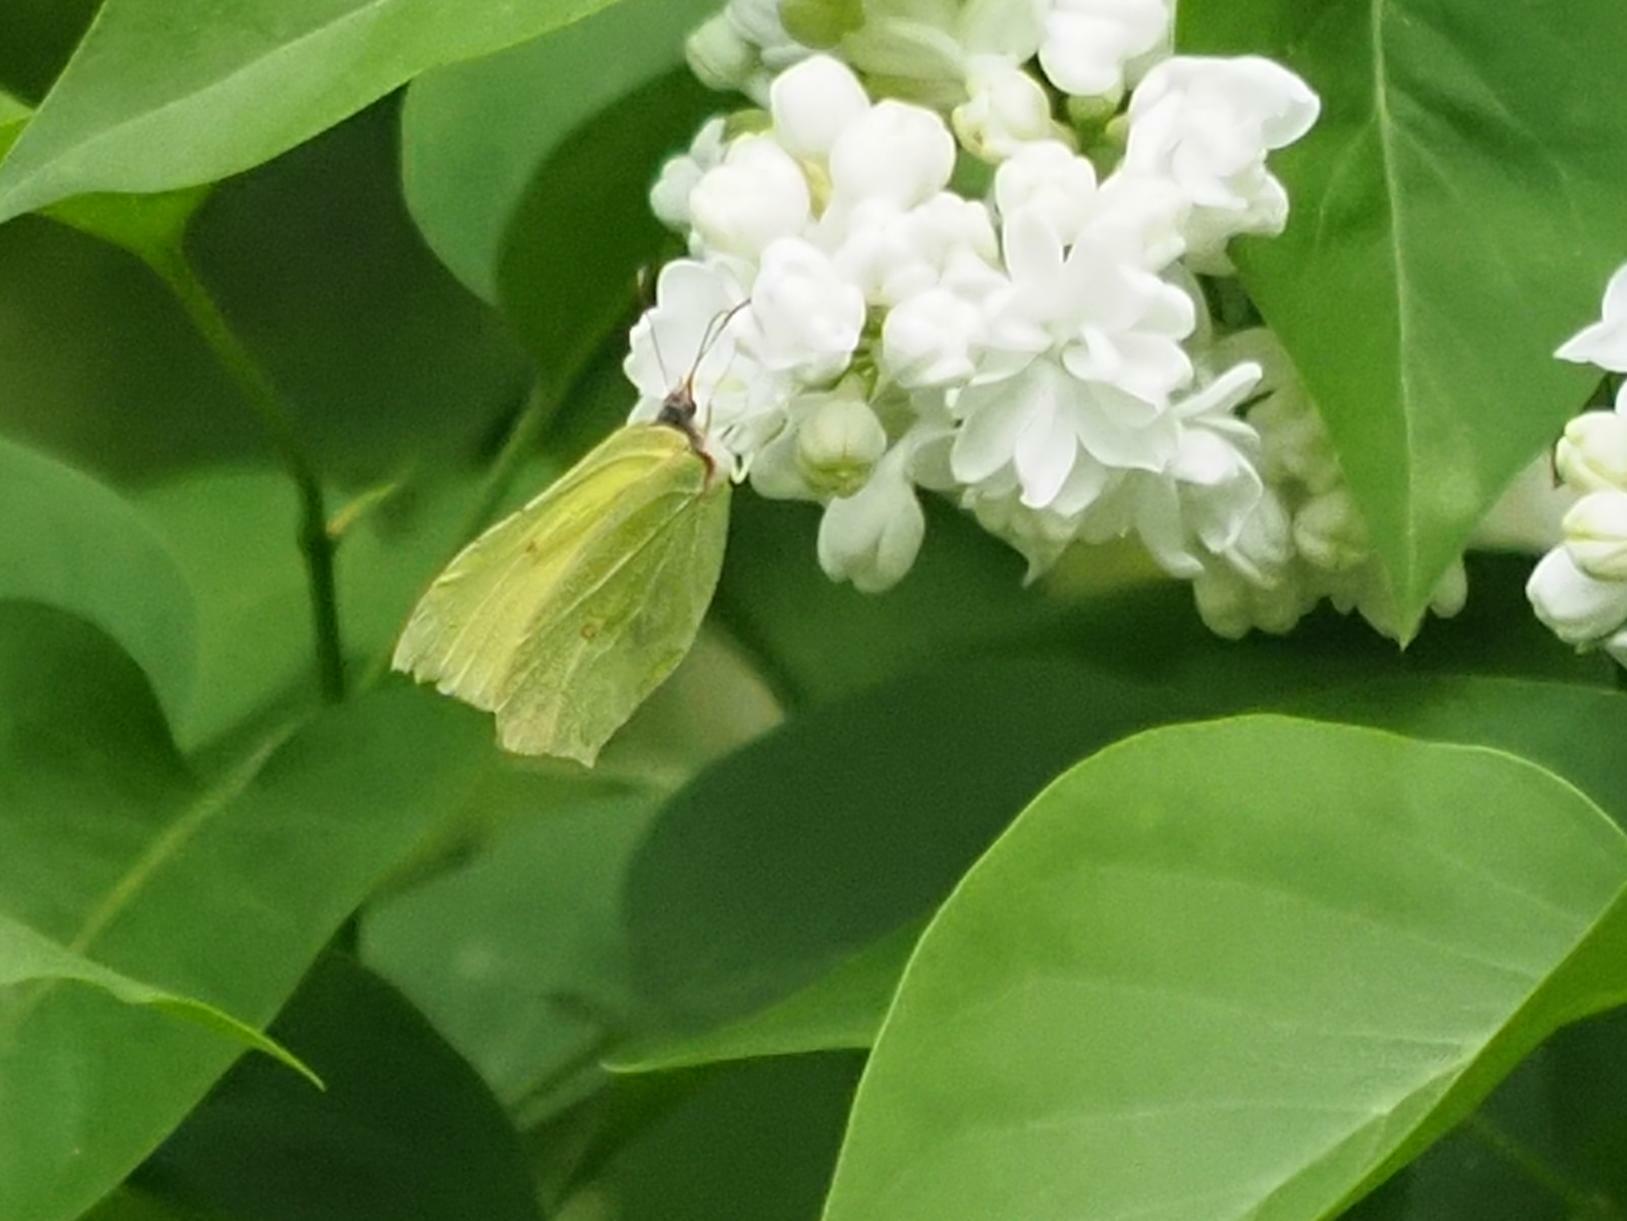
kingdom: Animalia
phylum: Arthropoda
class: Insecta
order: Lepidoptera
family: Pieridae
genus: Gonepteryx
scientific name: Gonepteryx rhamni
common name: Brimstone
